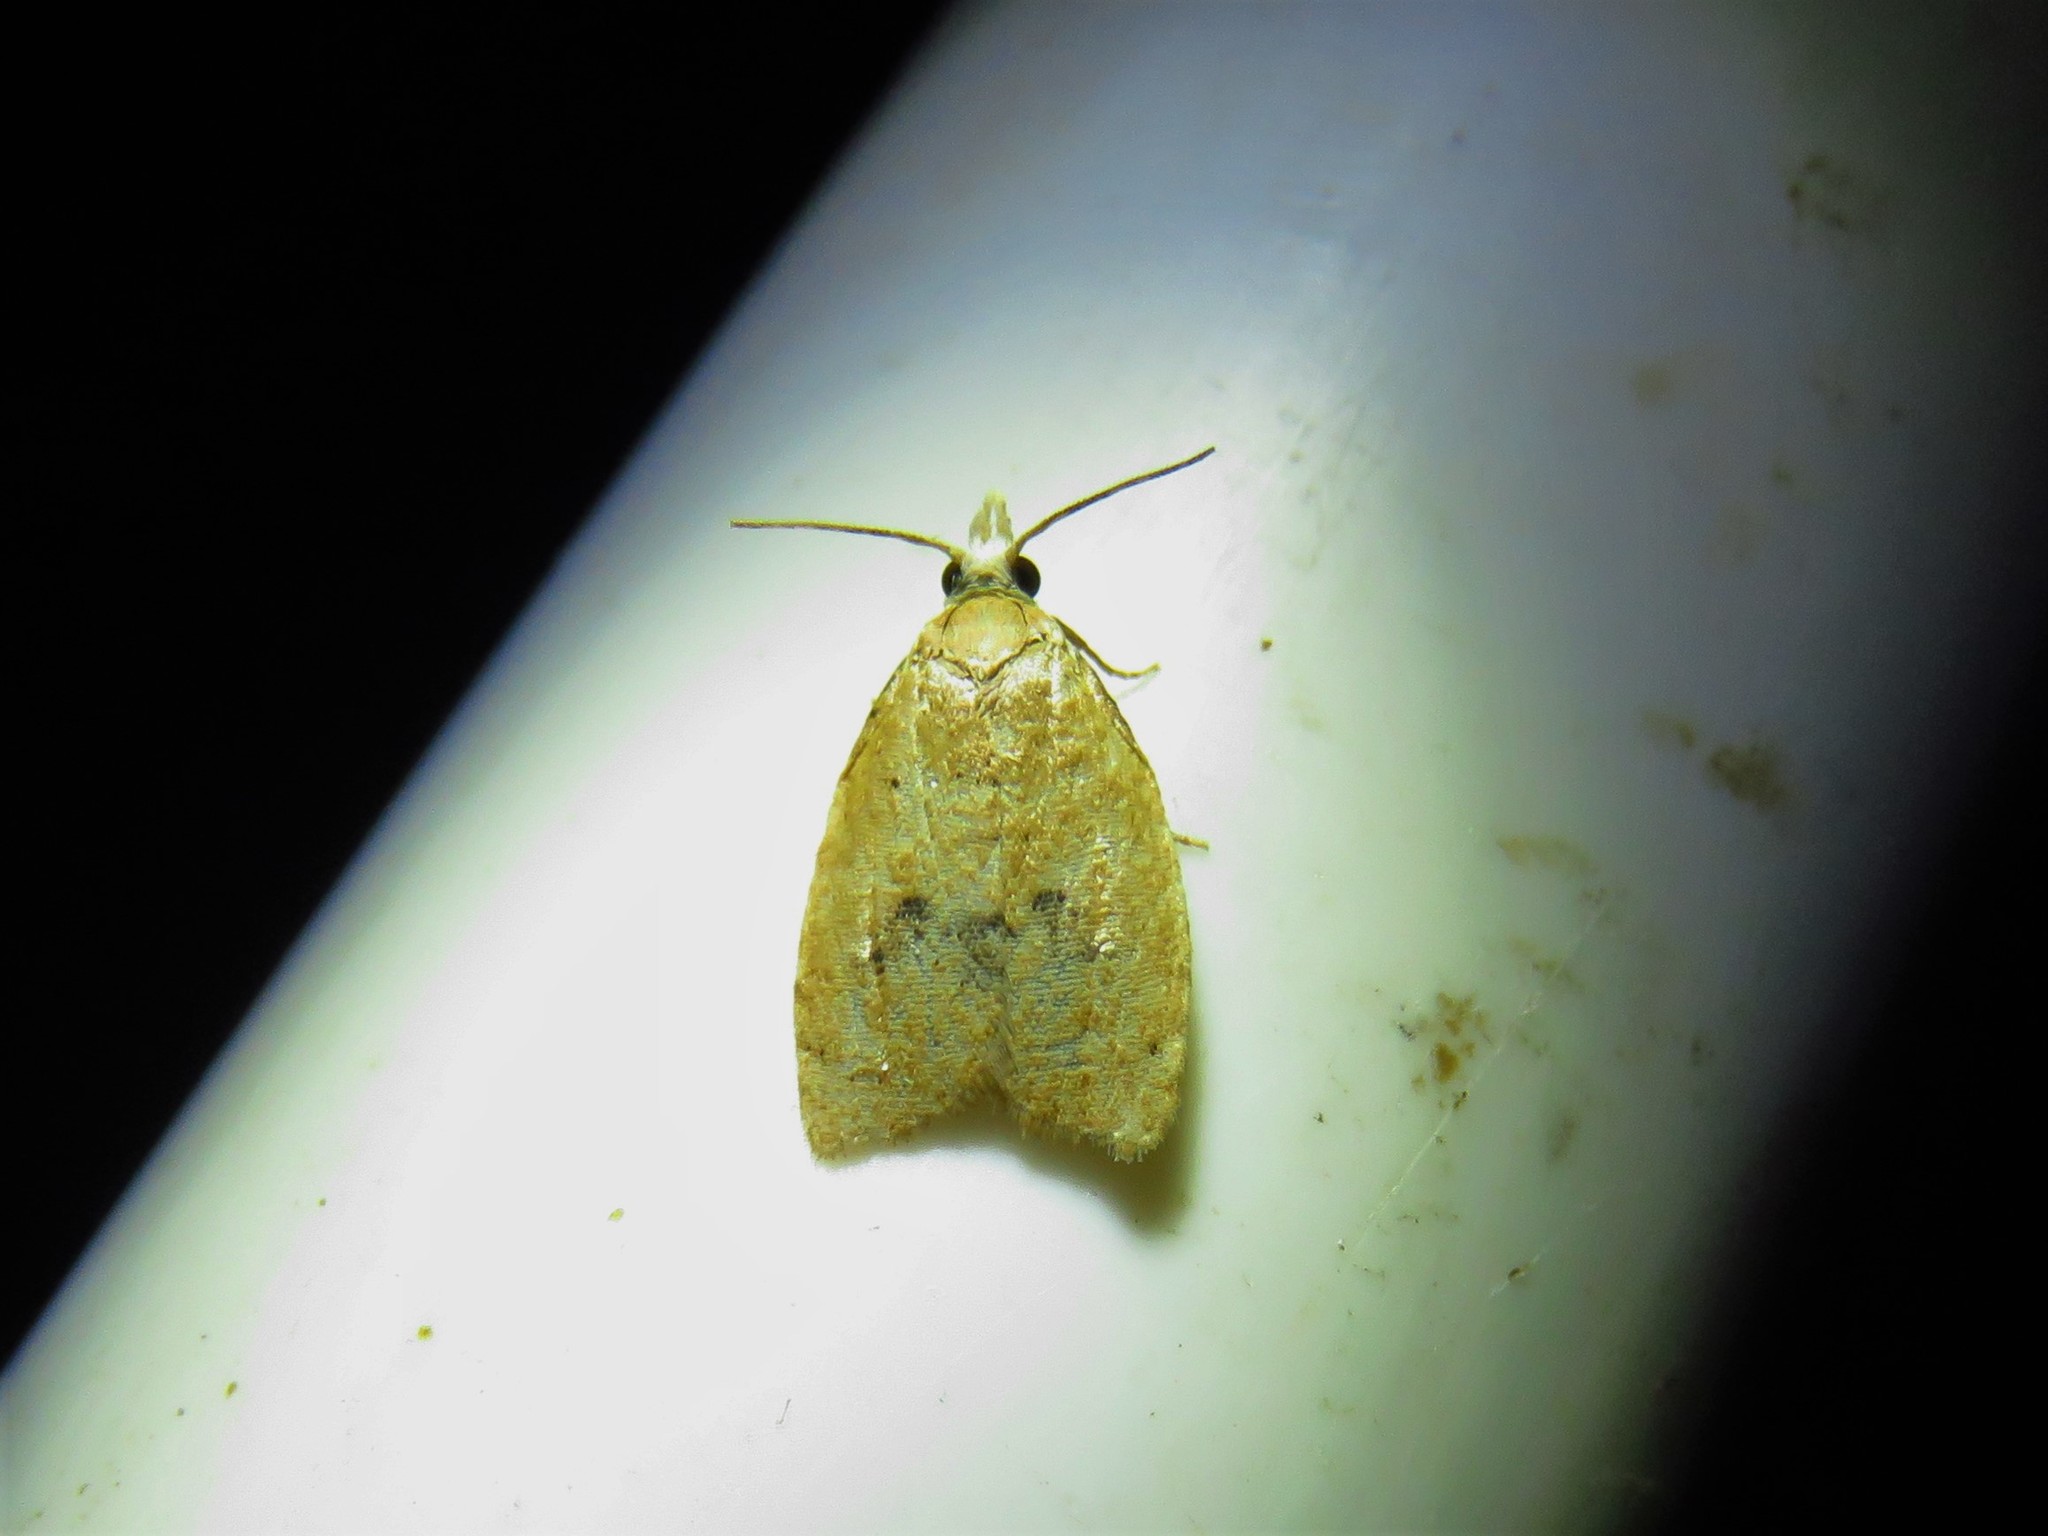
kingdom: Animalia
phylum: Arthropoda
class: Insecta
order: Lepidoptera
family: Tortricidae
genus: Sparganothoides
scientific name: Sparganothoides lentiginosana
